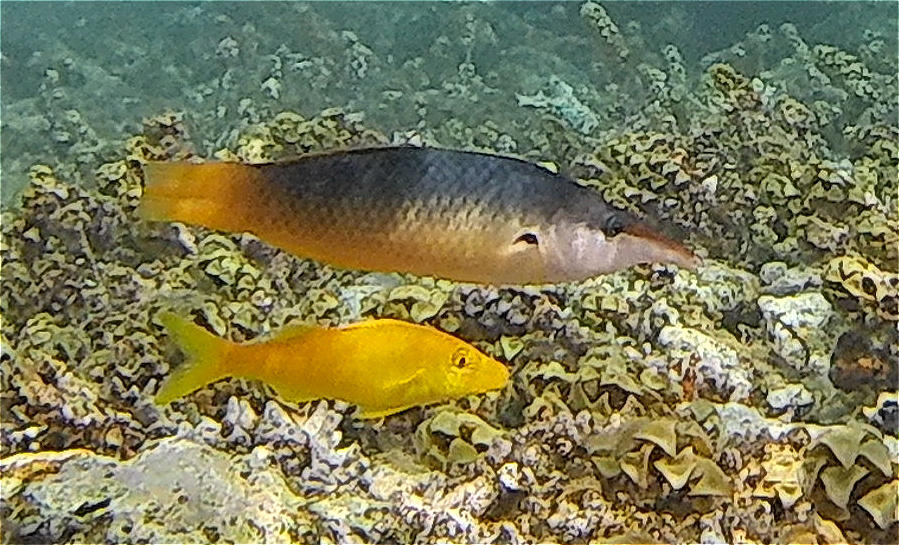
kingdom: Animalia
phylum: Chordata
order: Perciformes
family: Labridae
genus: Gomphosus
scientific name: Gomphosus klunzingeri
